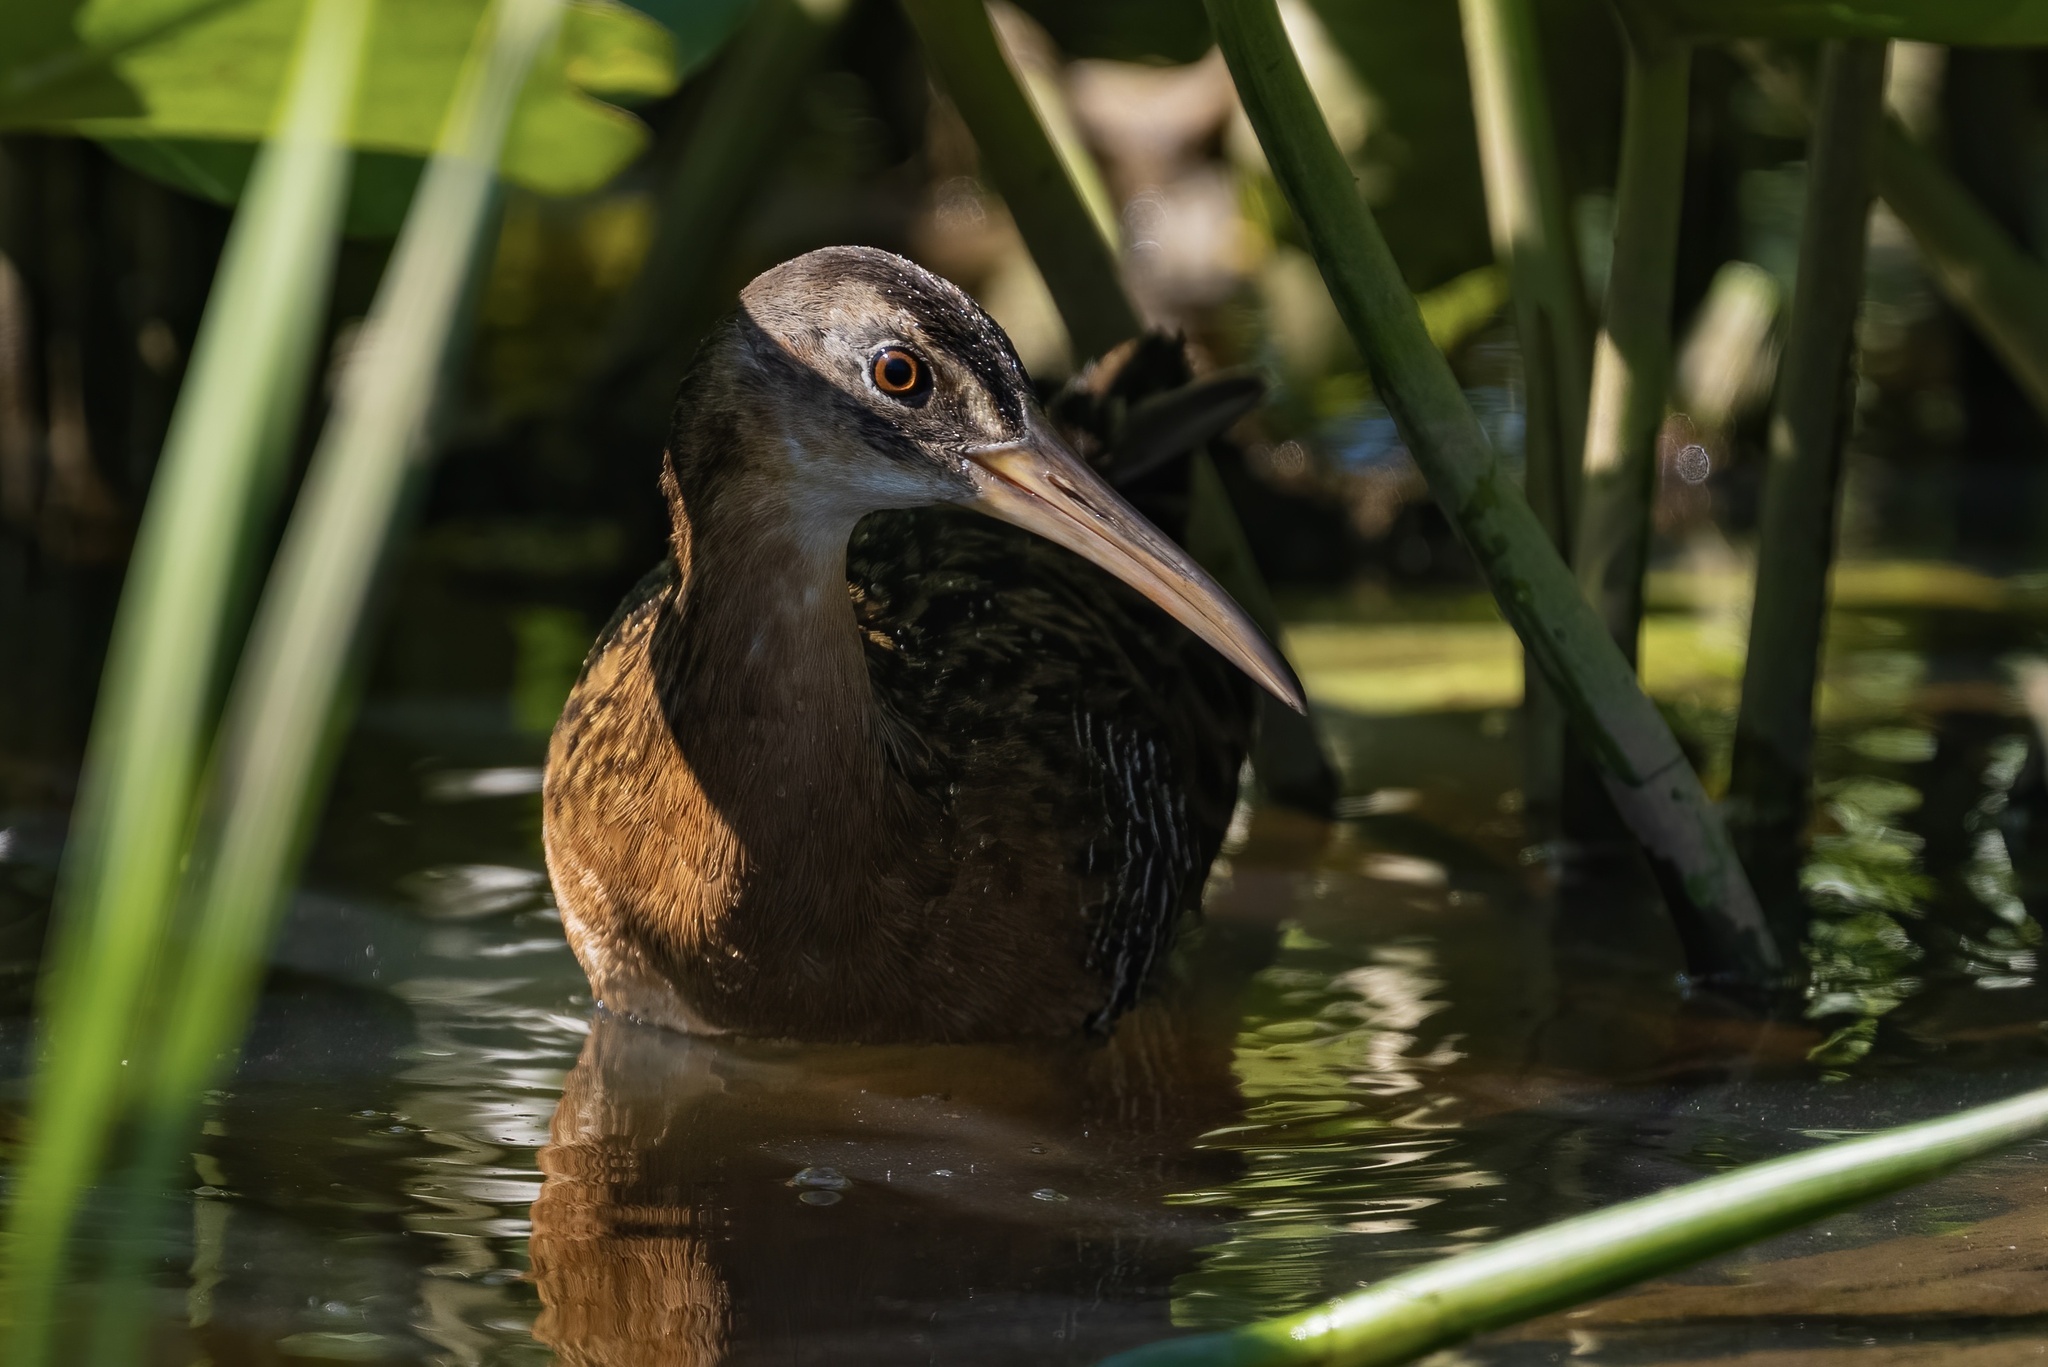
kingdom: Animalia
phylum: Chordata
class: Aves
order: Gruiformes
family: Rallidae
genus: Rallus
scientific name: Rallus elegans
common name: King rail
